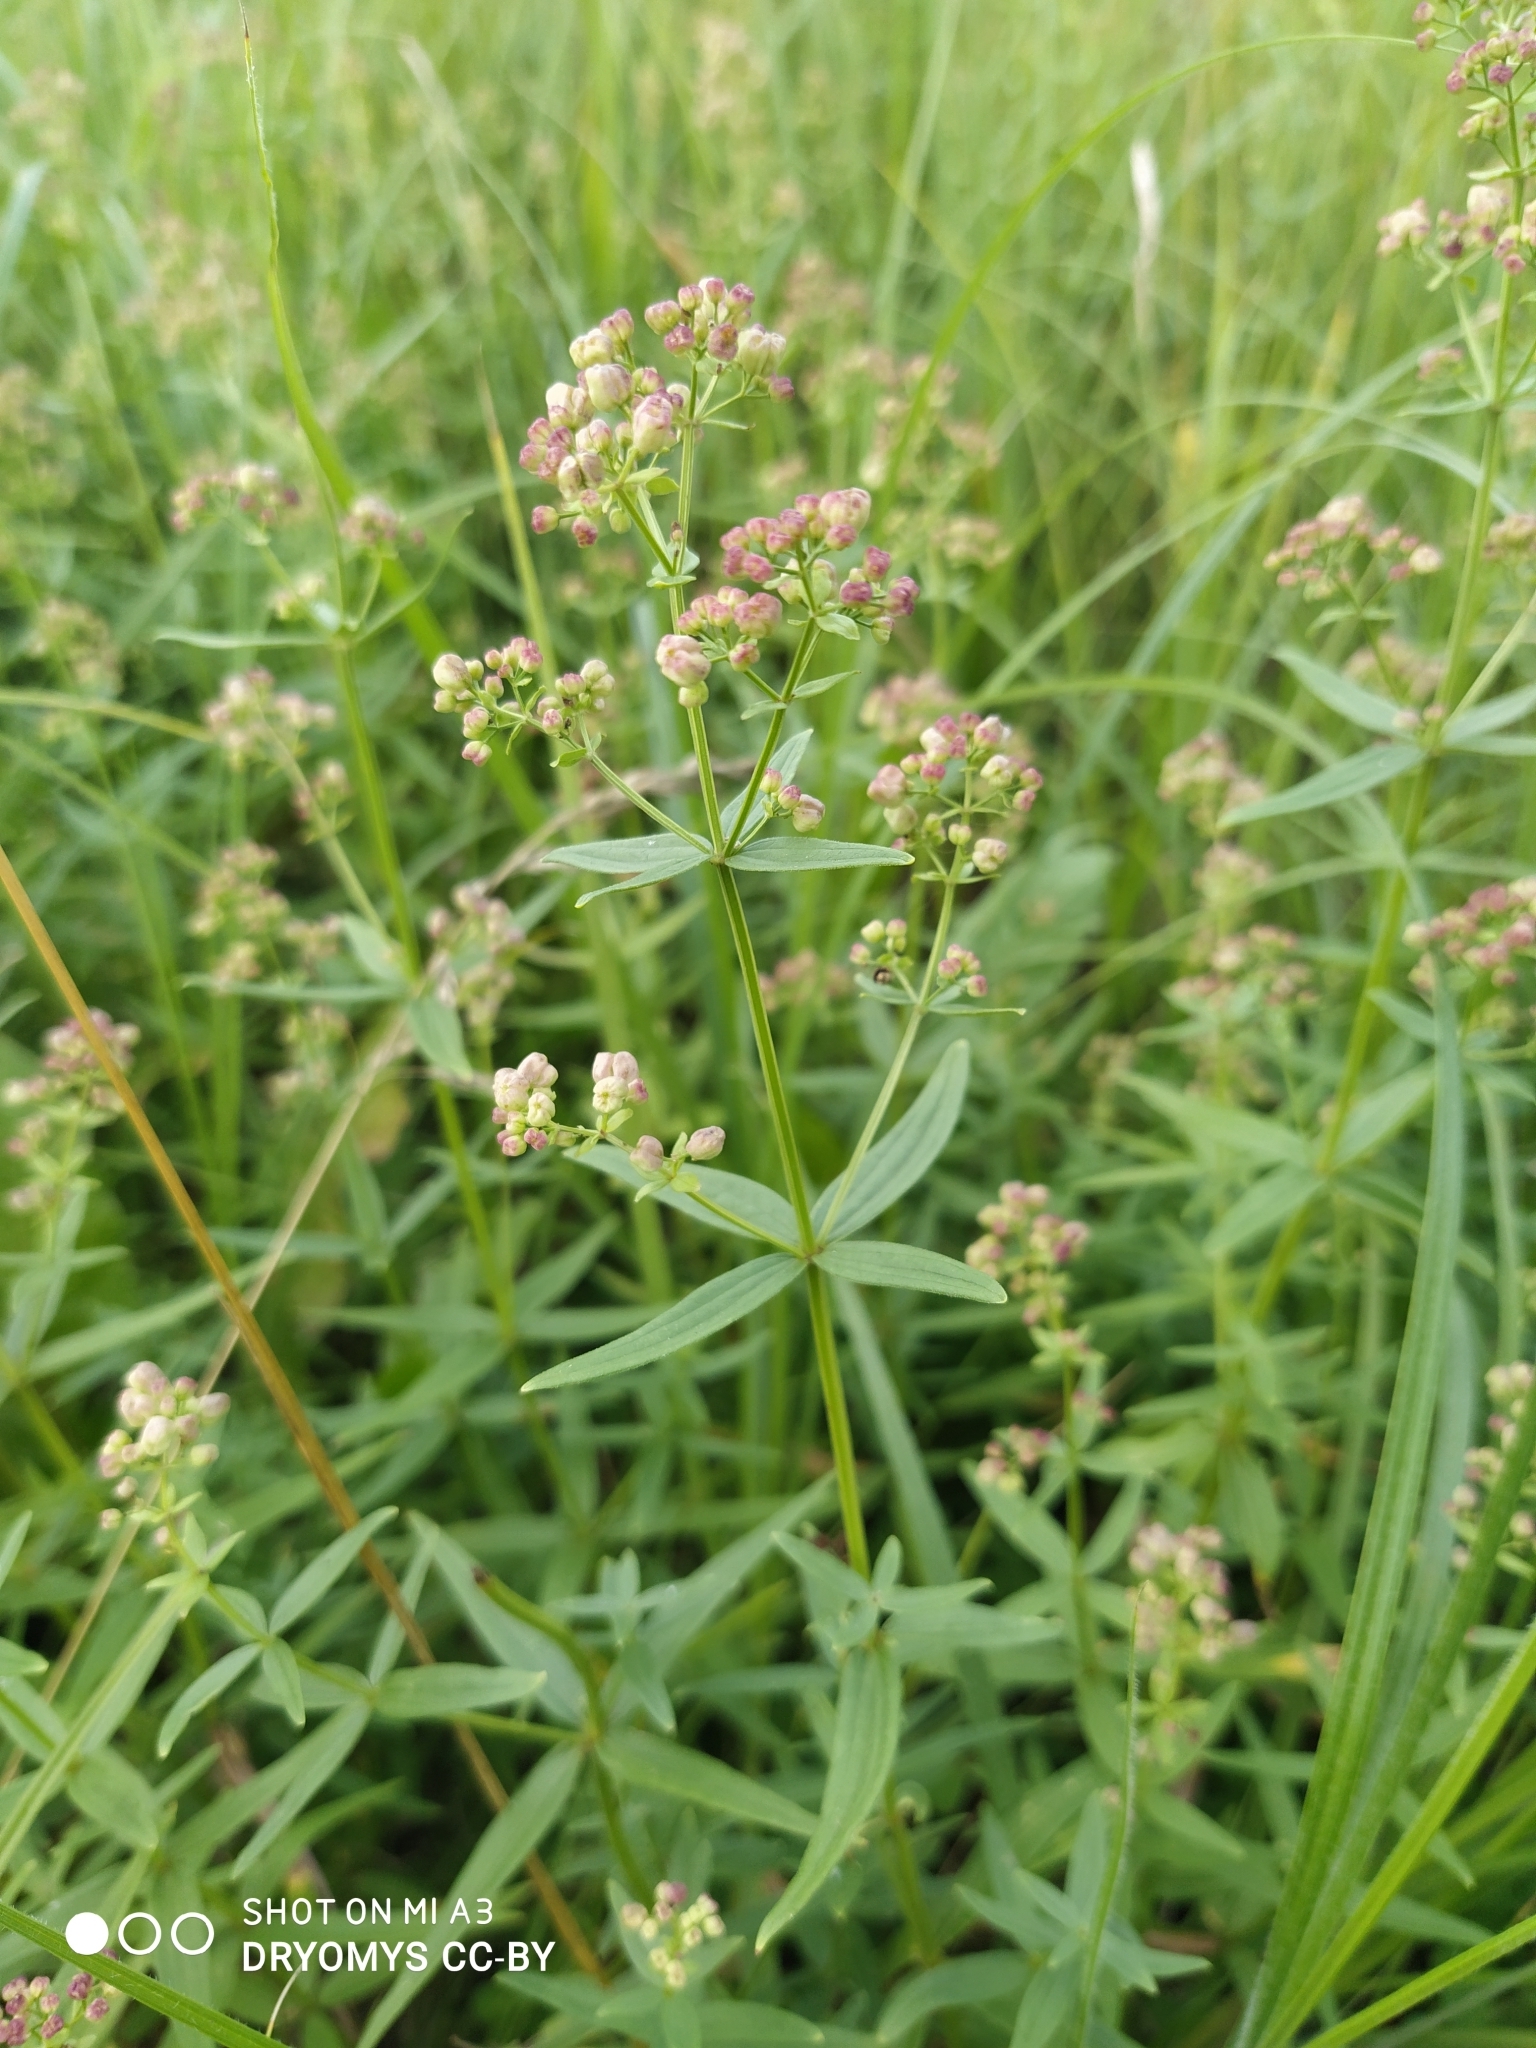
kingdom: Plantae
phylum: Tracheophyta
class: Magnoliopsida
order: Gentianales
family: Rubiaceae
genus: Galium
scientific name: Galium boreale
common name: Northern bedstraw
